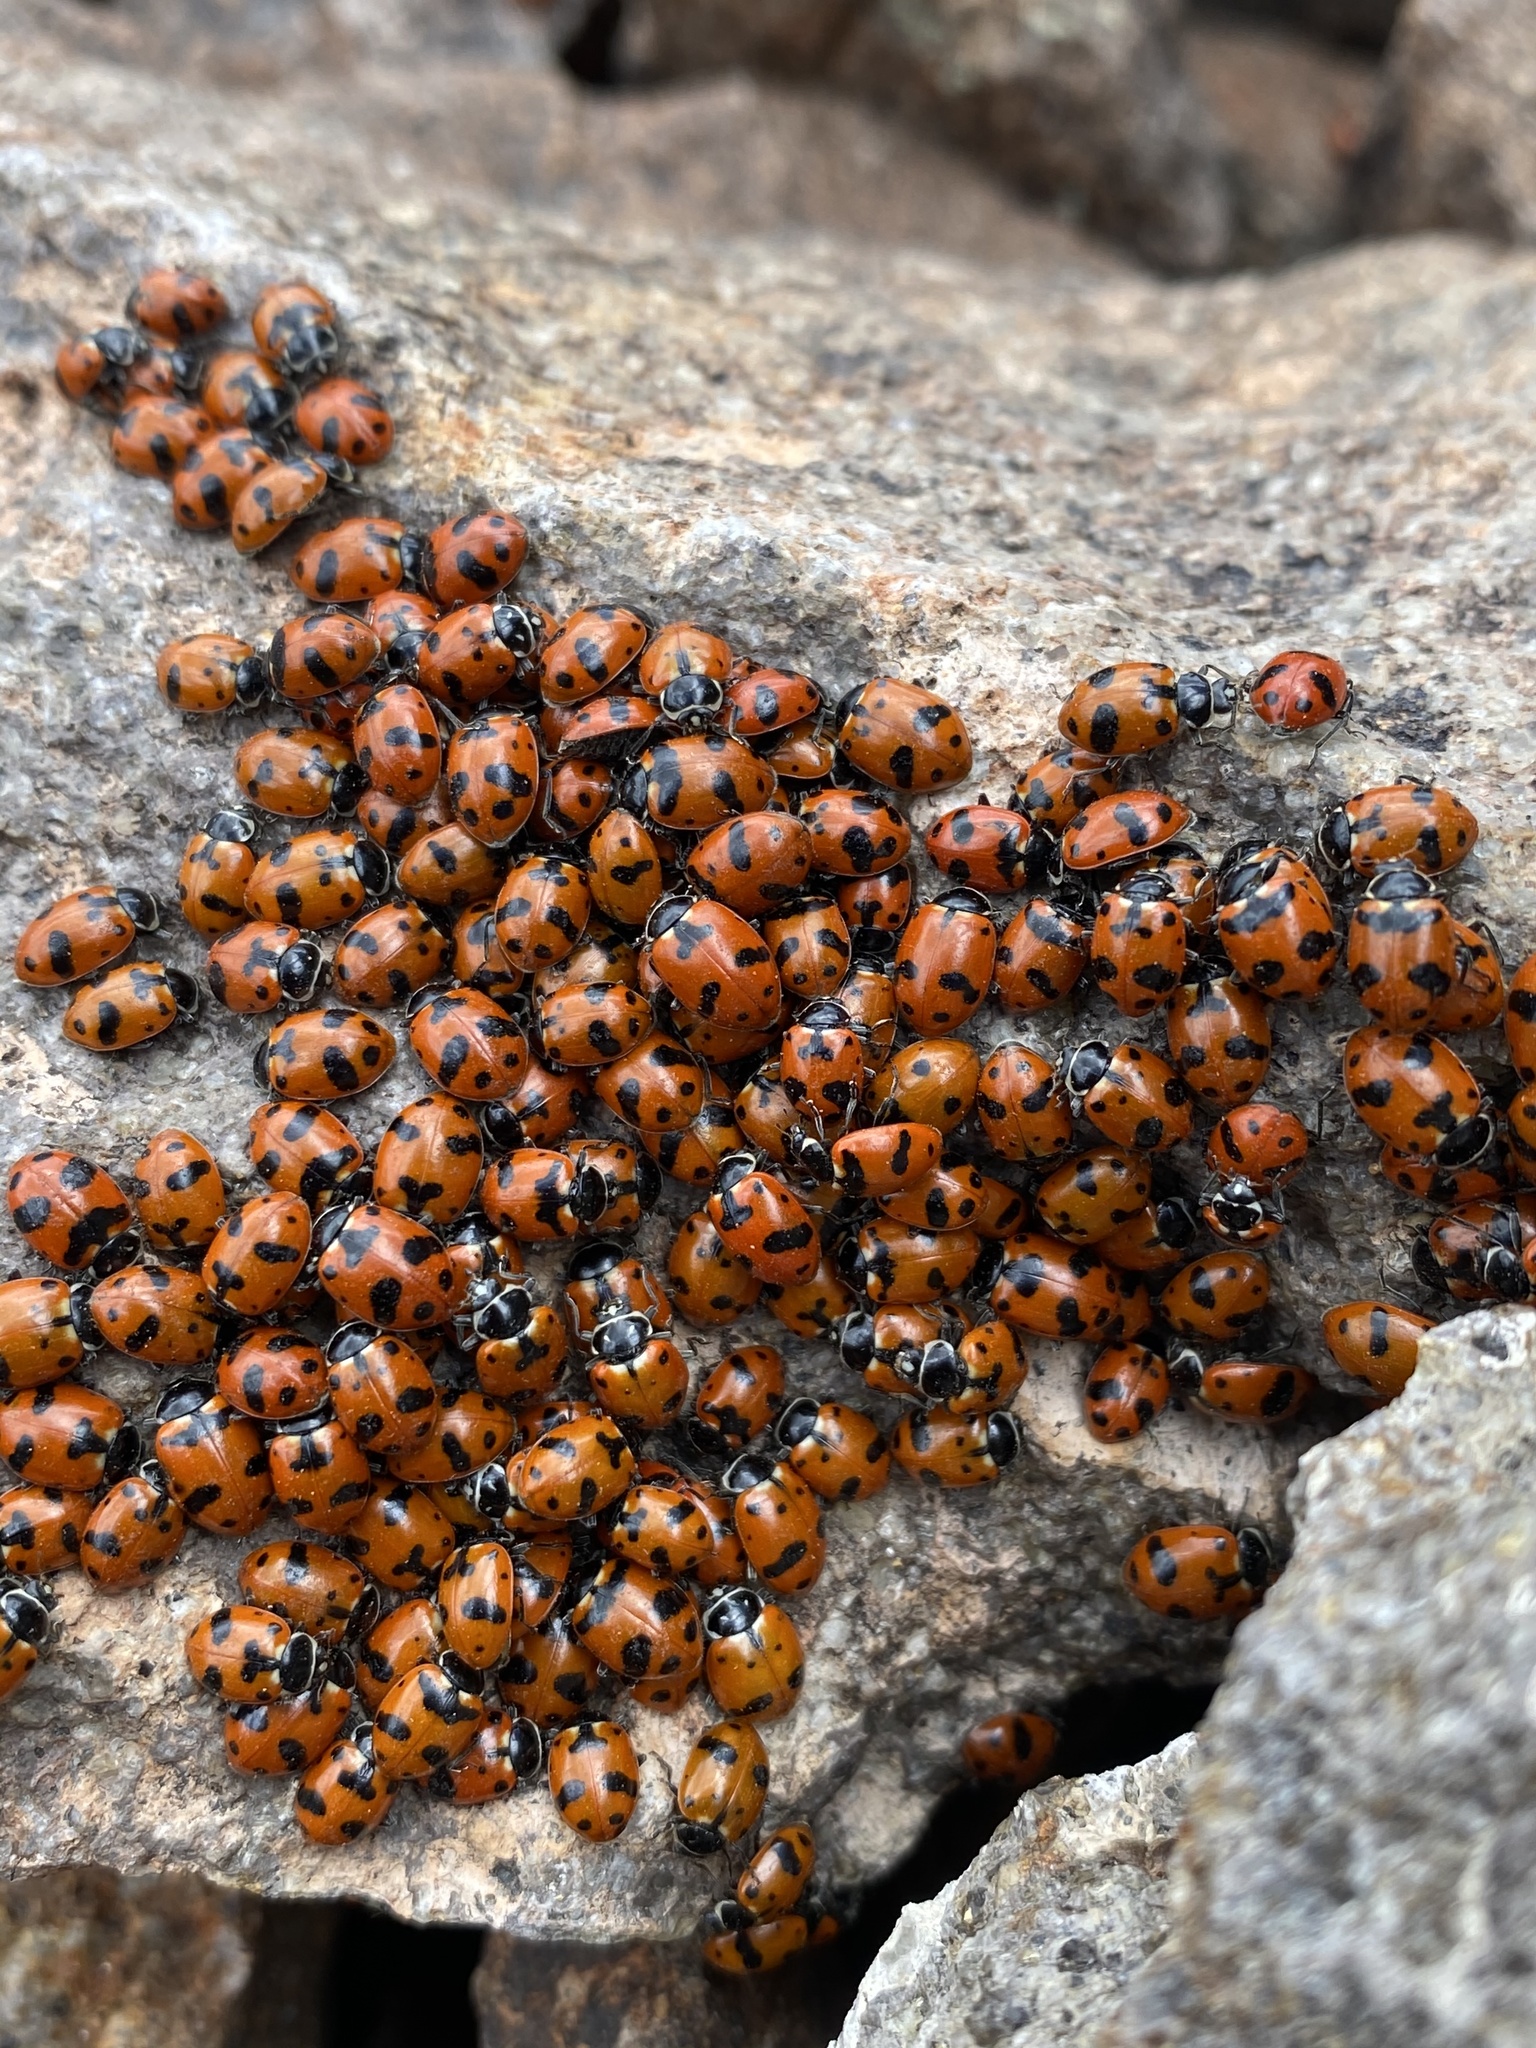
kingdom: Animalia
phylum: Arthropoda
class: Insecta
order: Coleoptera
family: Coccinellidae
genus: Hippodamia
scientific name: Hippodamia caseyi
